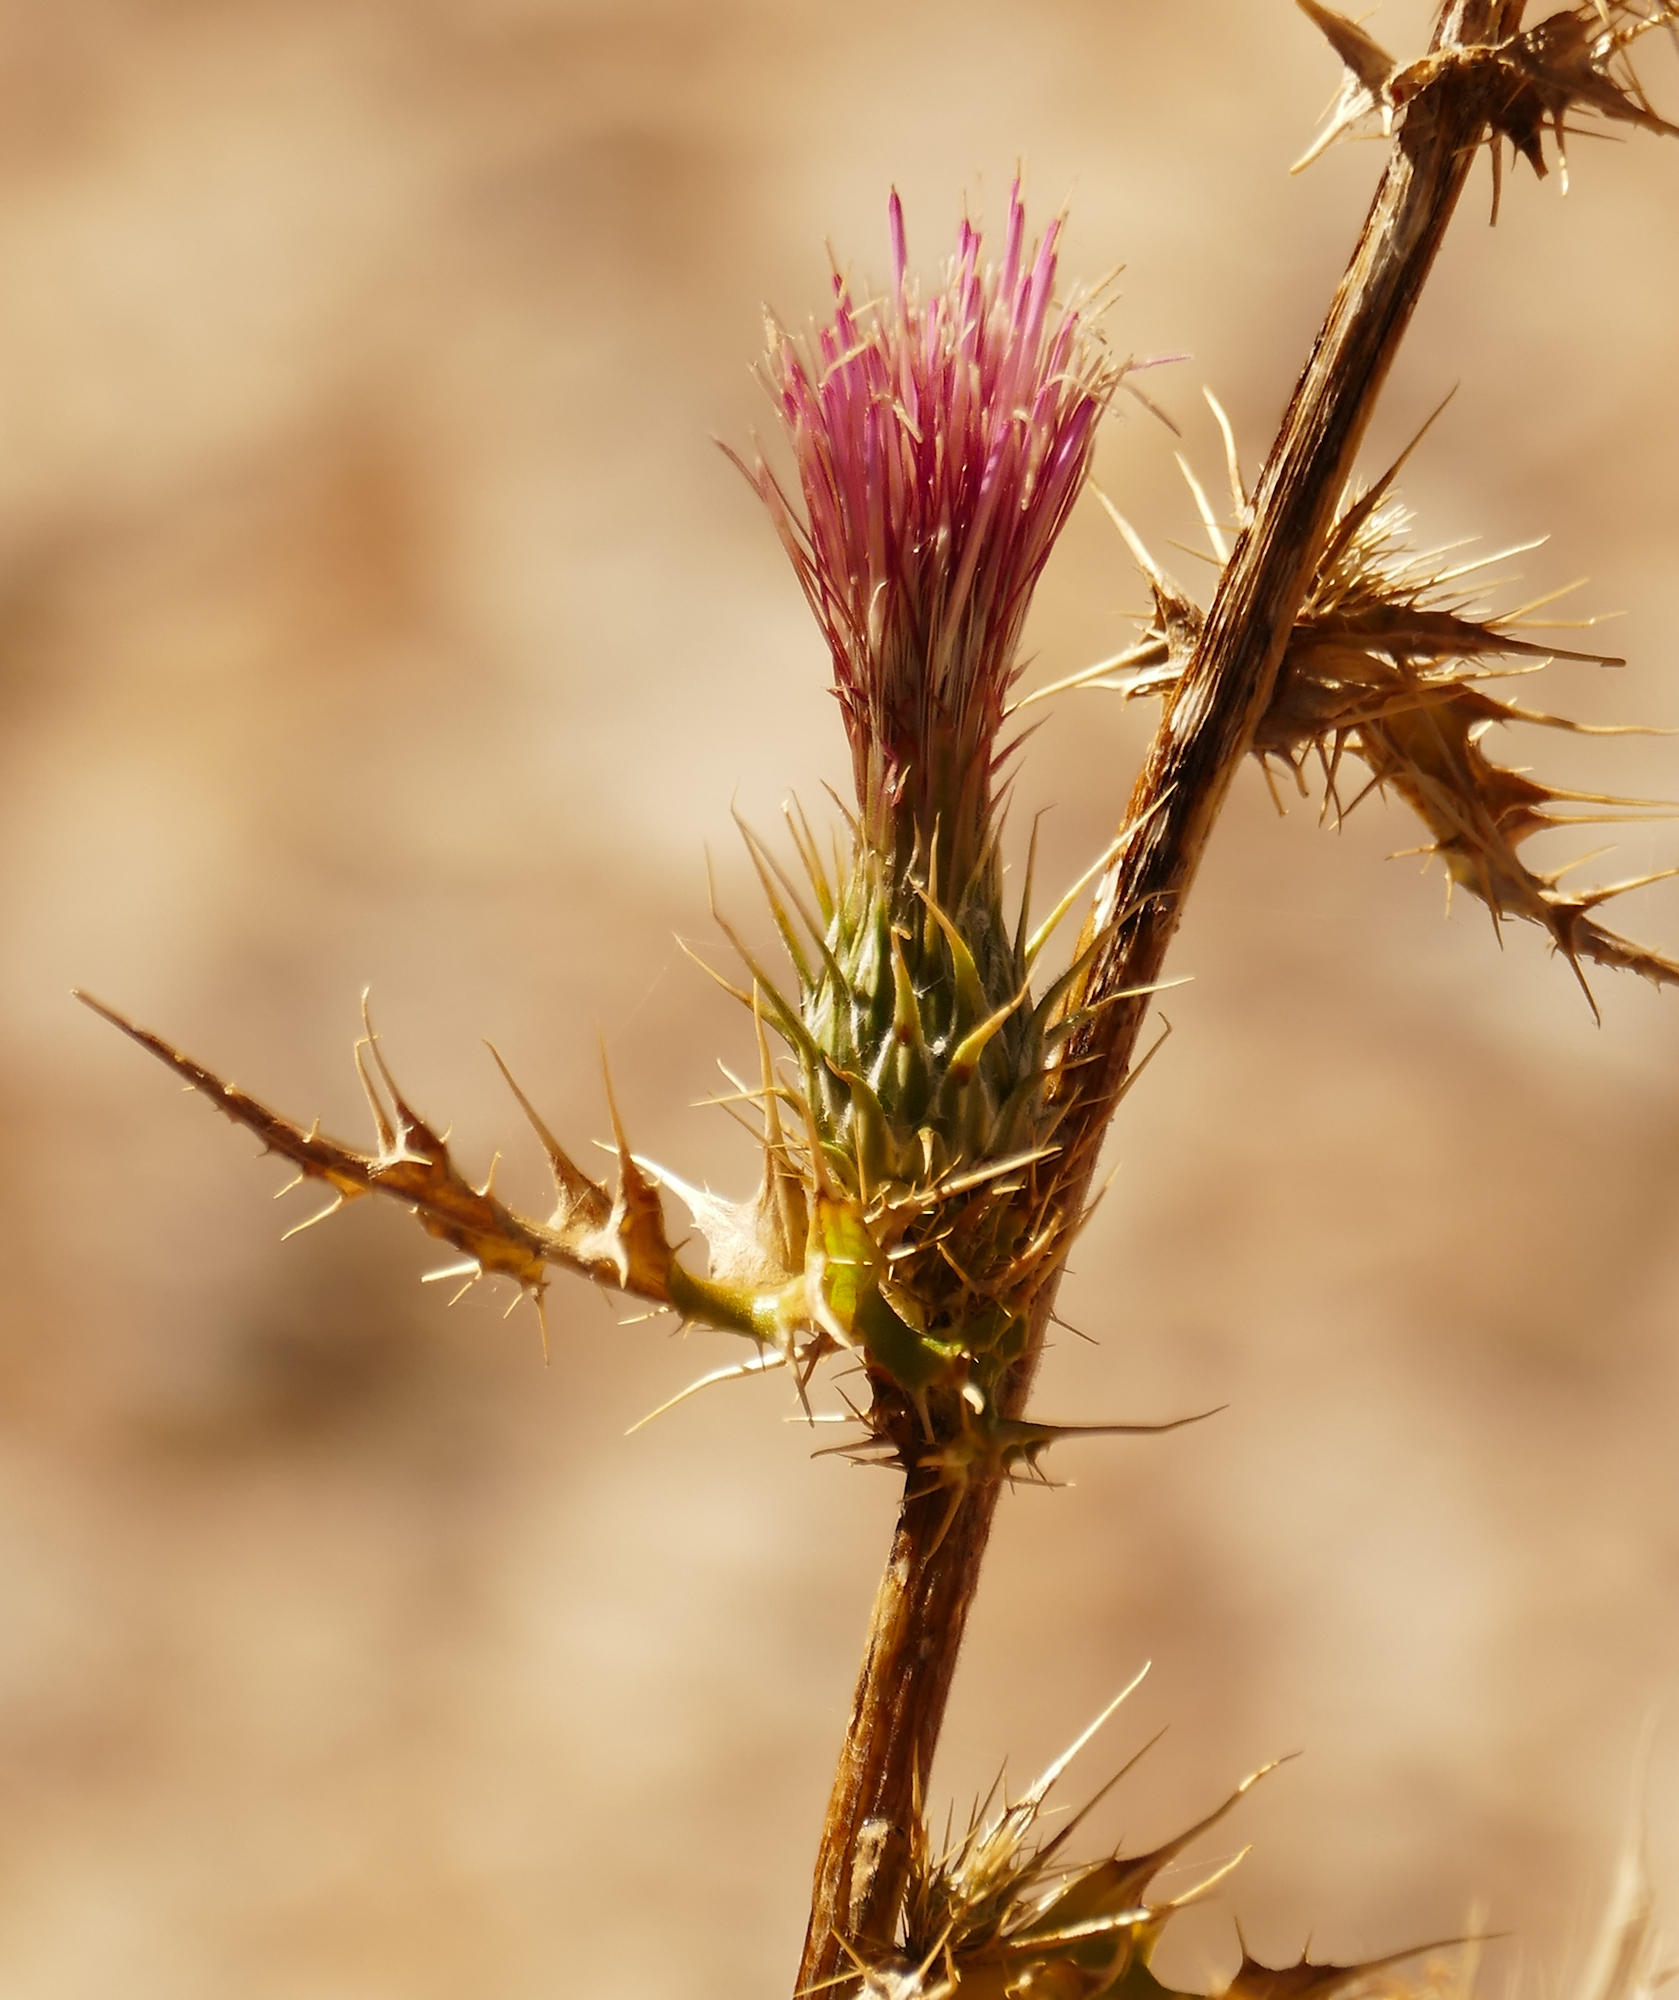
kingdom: Plantae
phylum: Tracheophyta
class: Magnoliopsida
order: Asterales
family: Asteraceae
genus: Cirsium
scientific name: Cirsium arizonicum
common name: Arizona thistle
